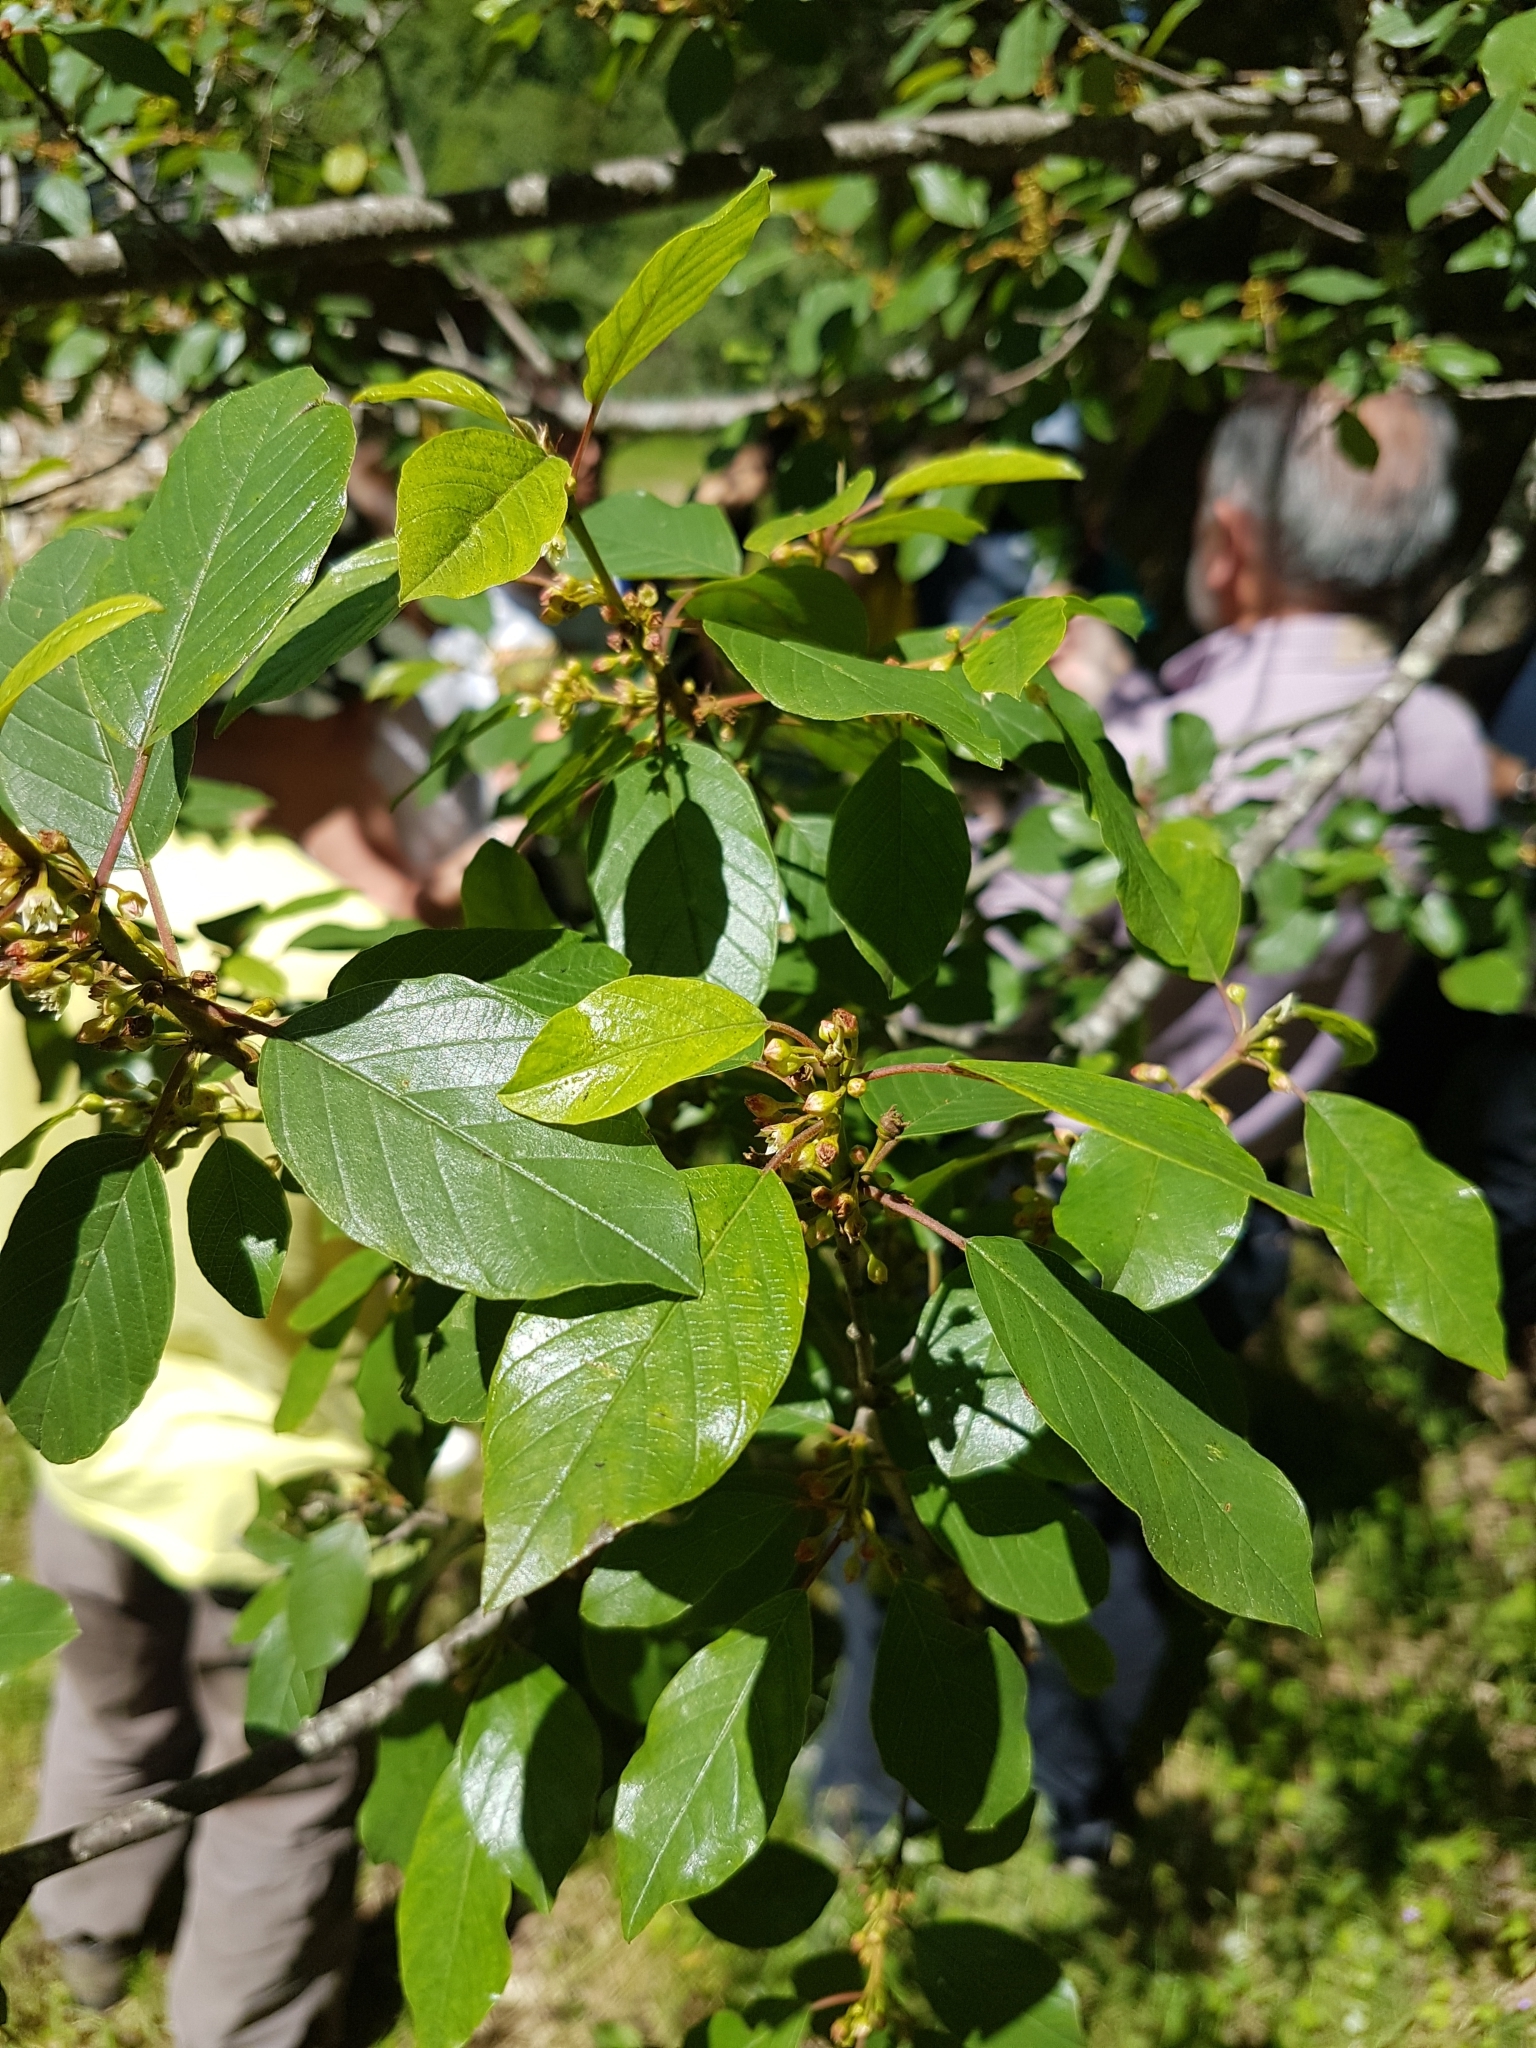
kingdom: Plantae
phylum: Tracheophyta
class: Magnoliopsida
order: Rosales
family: Rhamnaceae
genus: Frangula
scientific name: Frangula alnus
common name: Alder buckthorn
